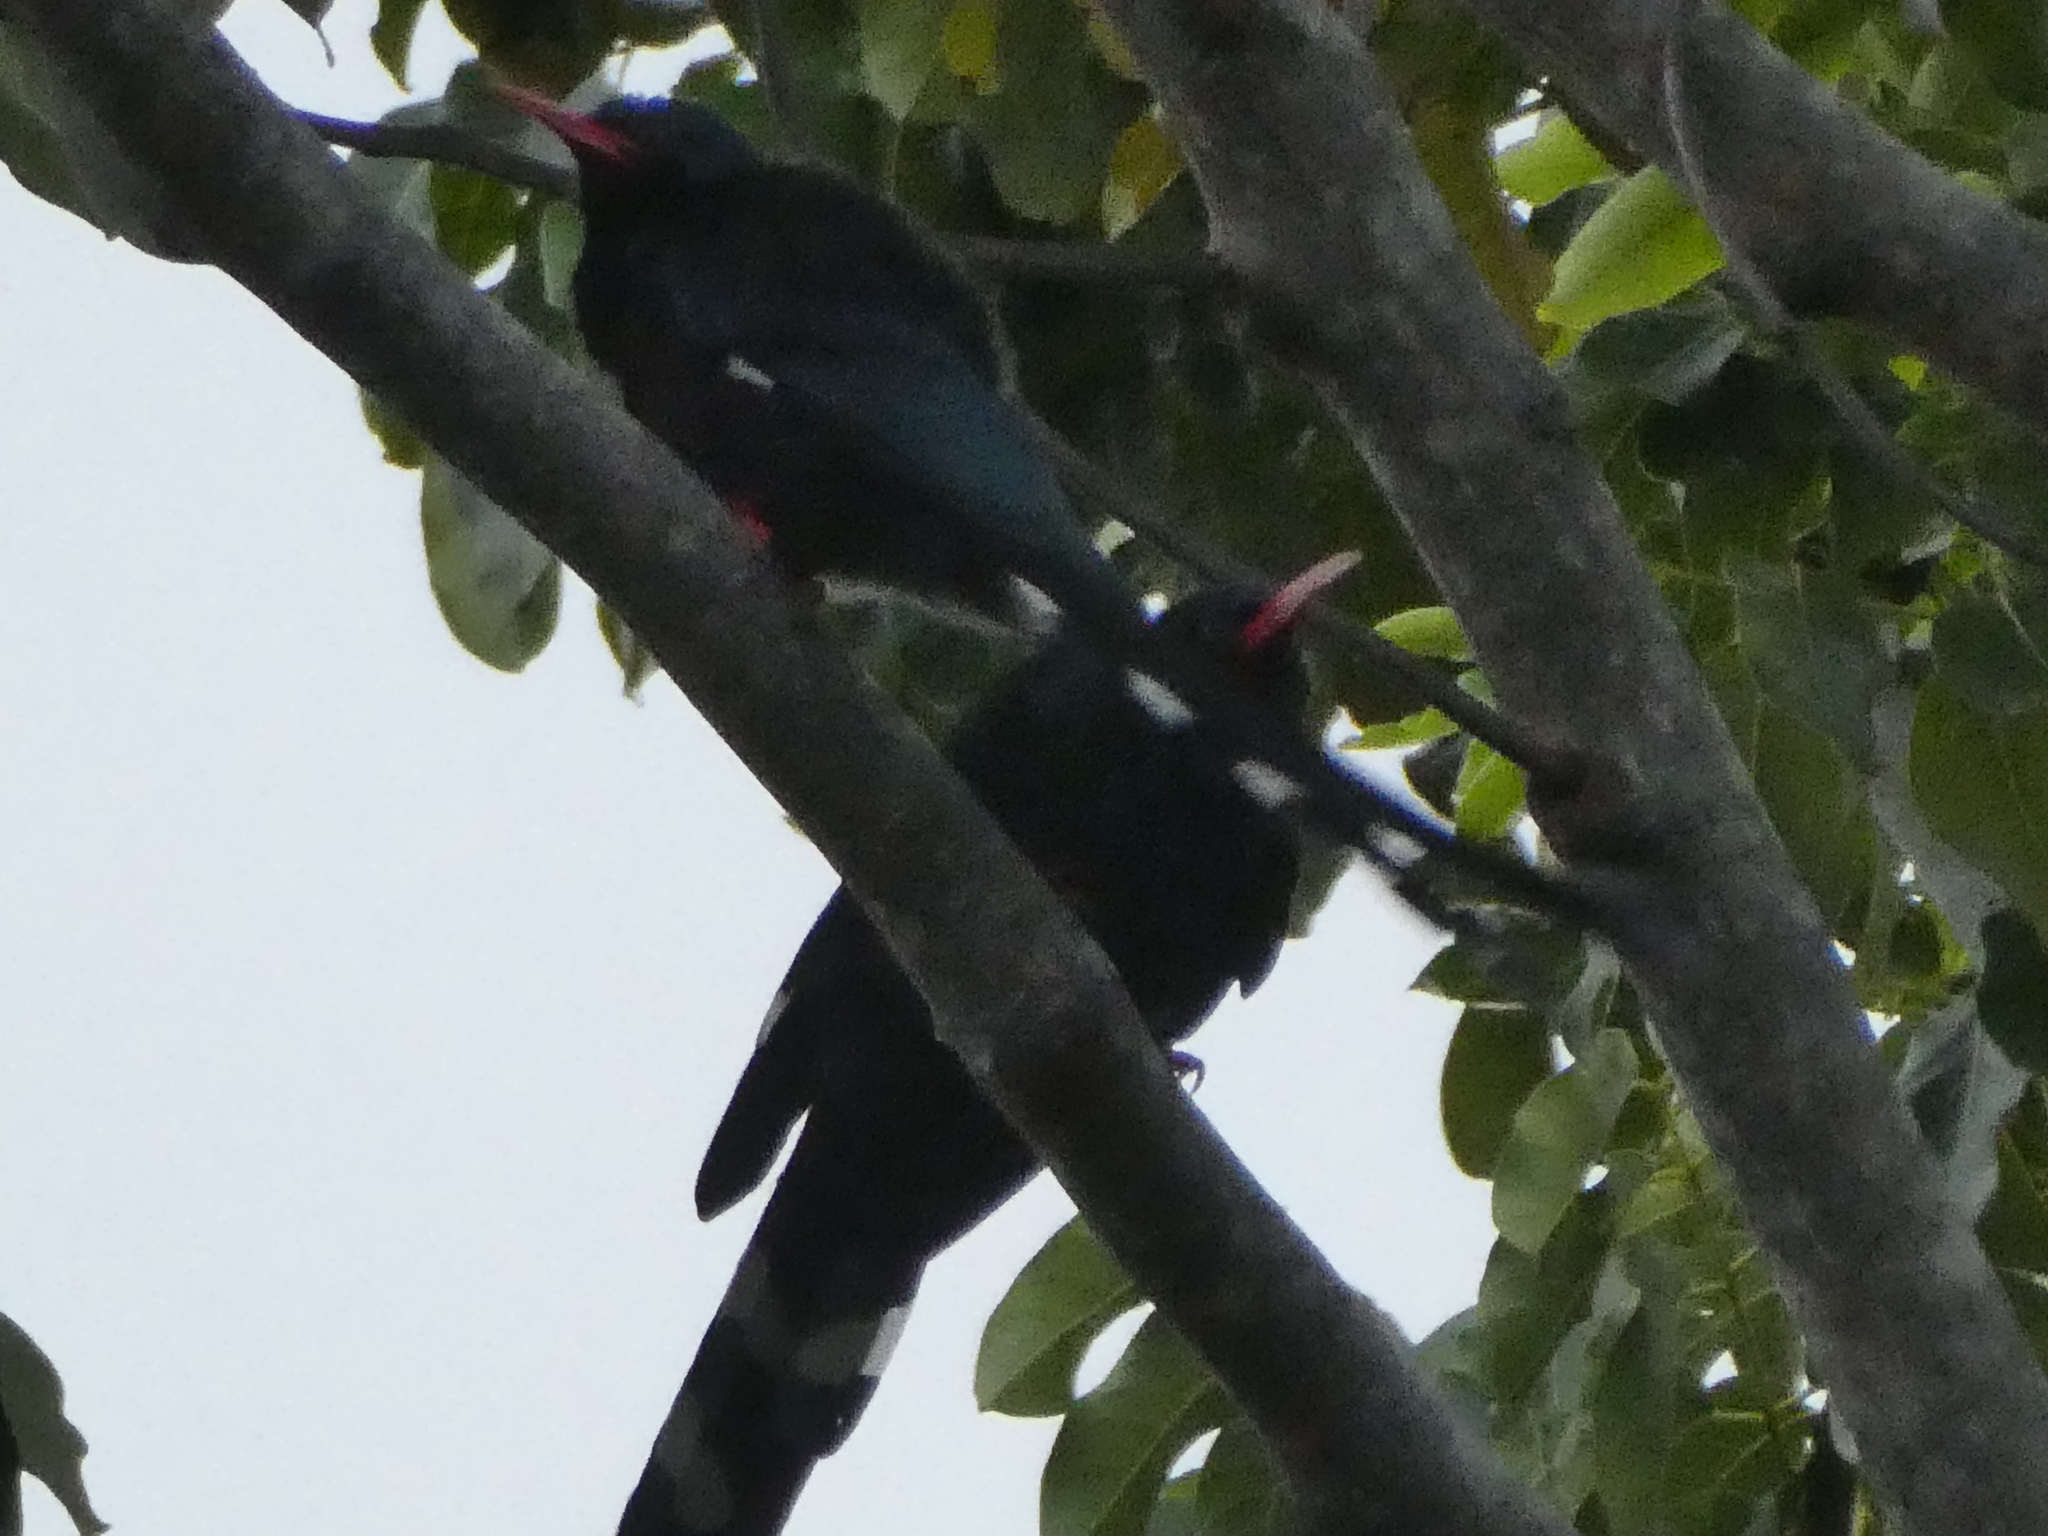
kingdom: Animalia
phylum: Chordata
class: Aves
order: Bucerotiformes
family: Phoeniculidae
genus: Phoeniculus
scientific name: Phoeniculus purpureus
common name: Green woodhoopoe
